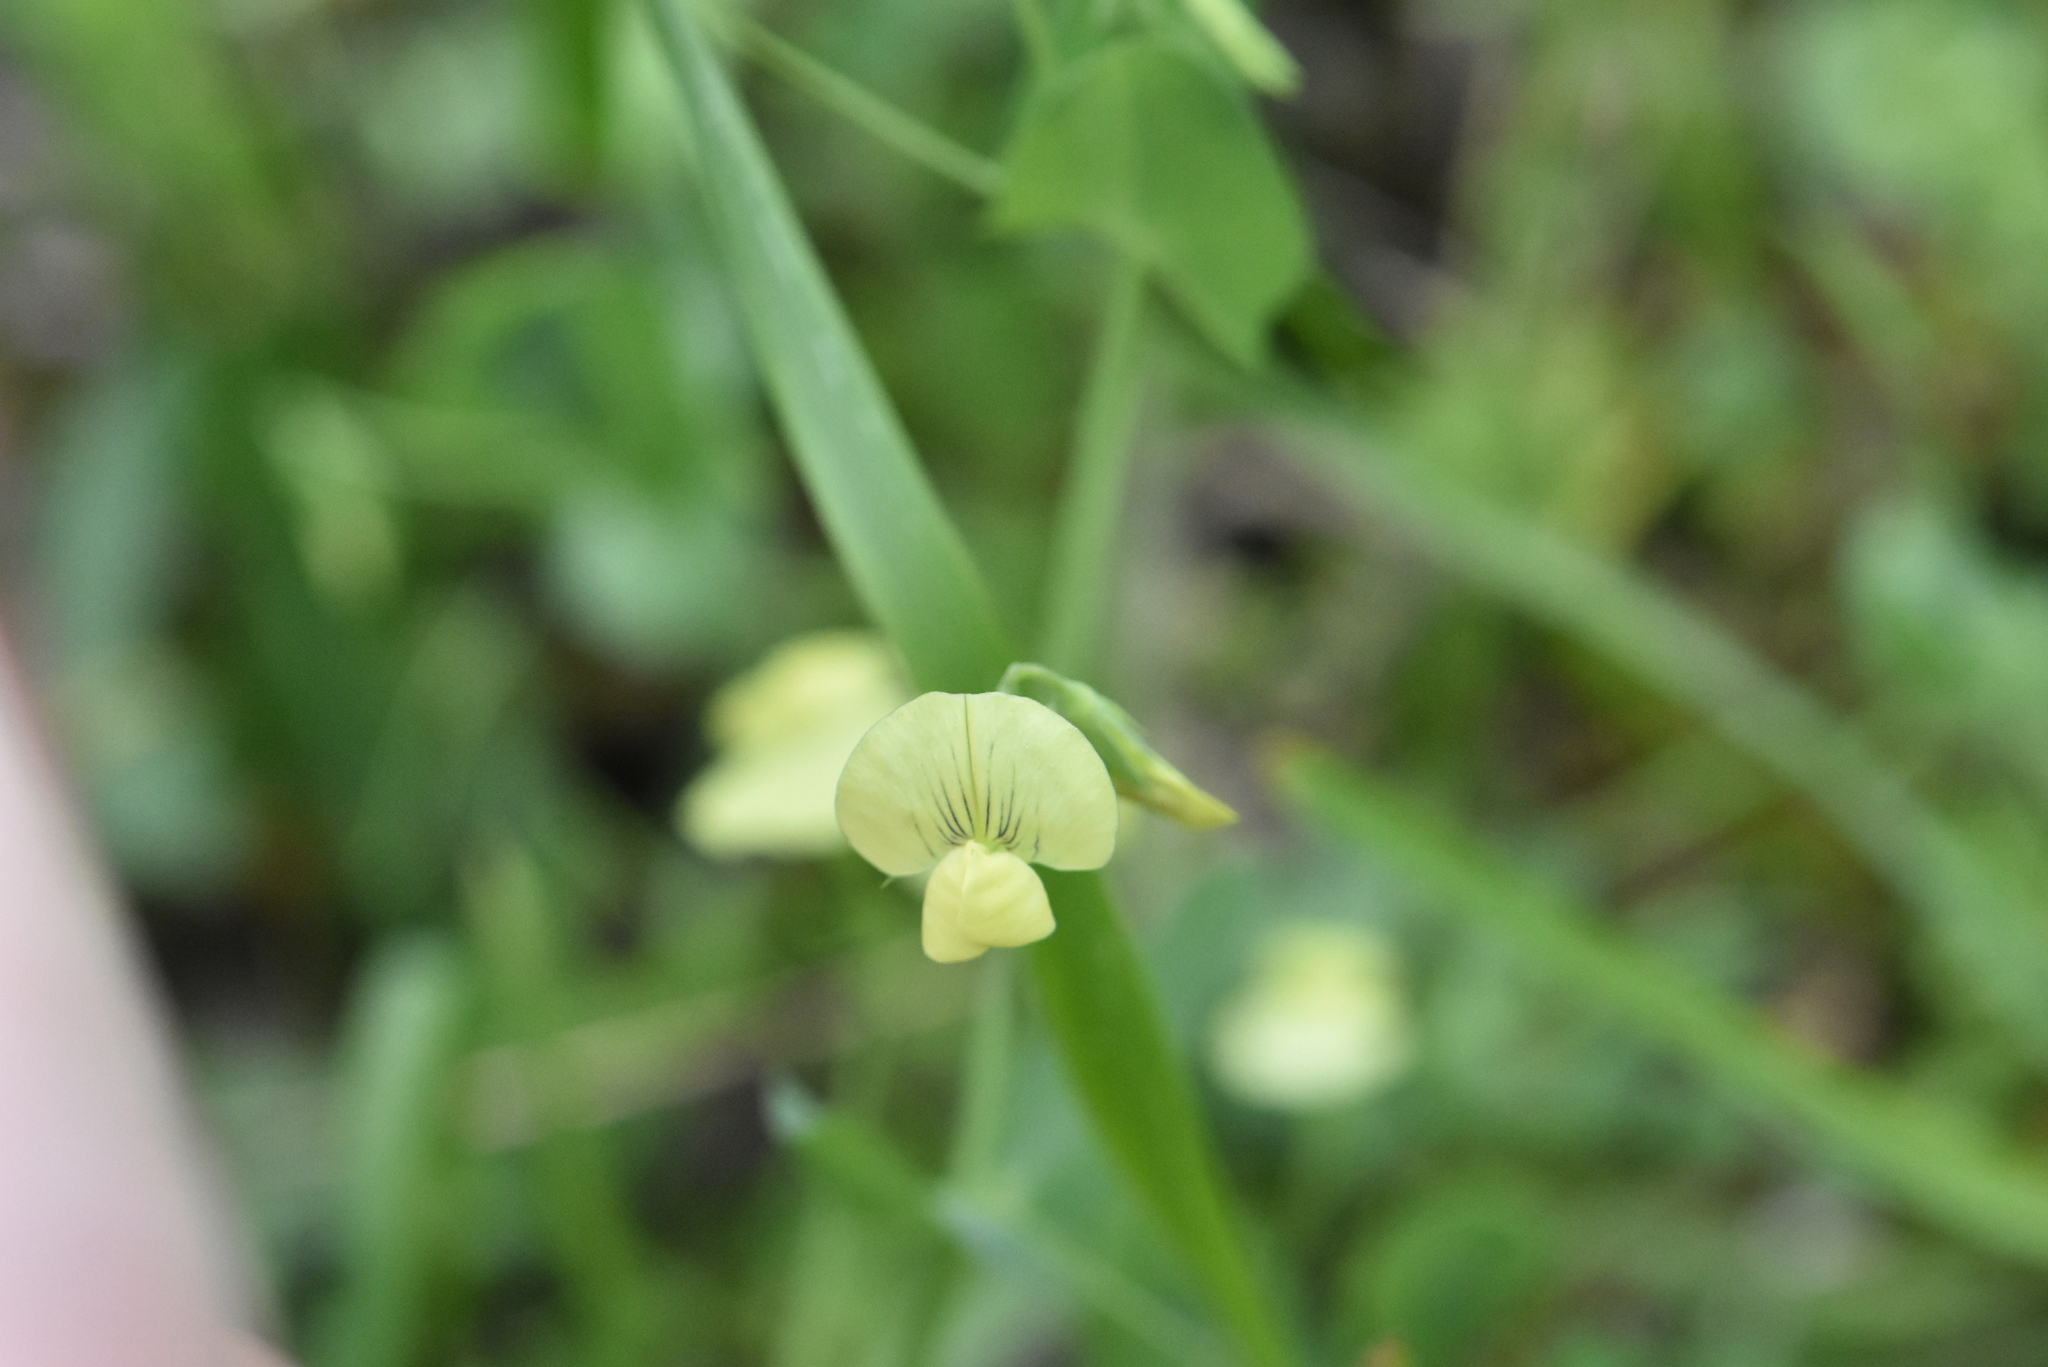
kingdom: Plantae
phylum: Tracheophyta
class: Magnoliopsida
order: Fabales
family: Fabaceae
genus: Lathyrus
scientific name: Lathyrus aphaca
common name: Yellow vetchling
